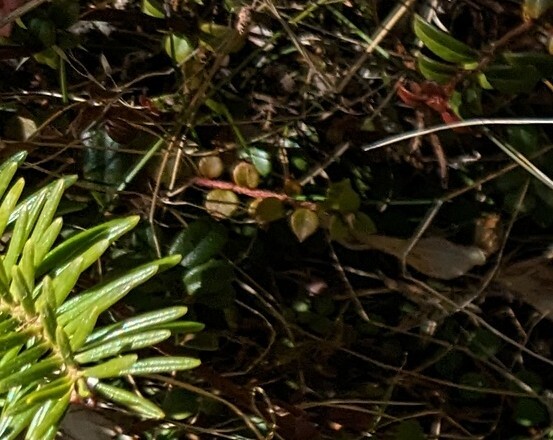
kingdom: Plantae
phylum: Tracheophyta
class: Magnoliopsida
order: Ericales
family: Ericaceae
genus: Gaultheria
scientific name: Gaultheria hispidula
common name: Cancer wintergreen
